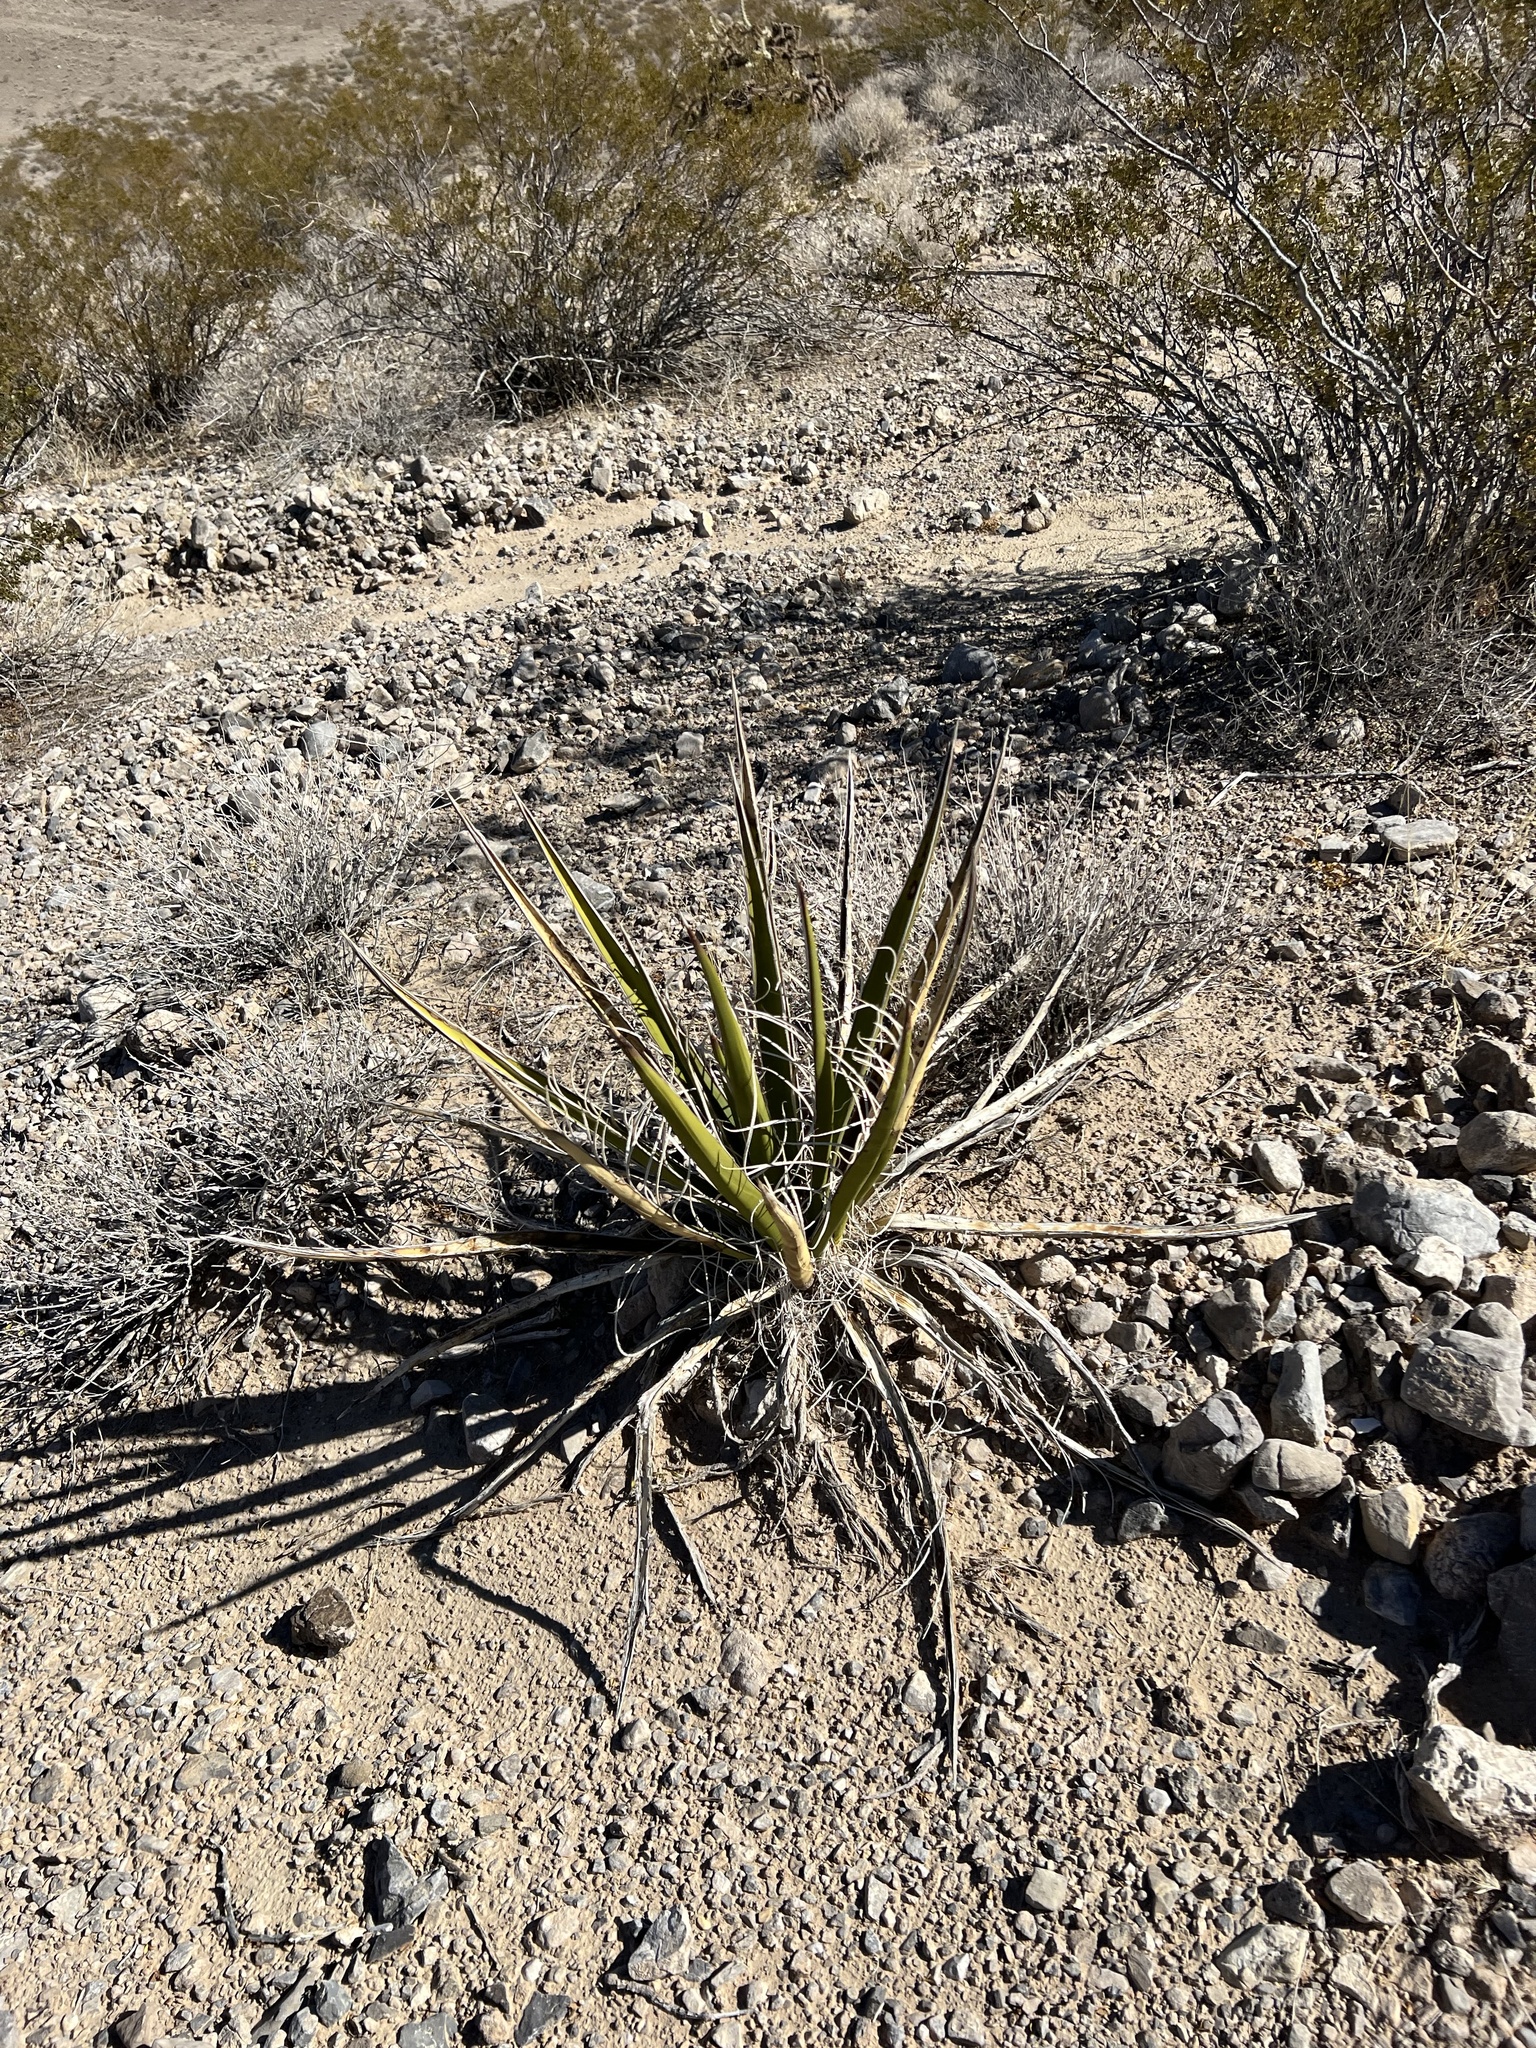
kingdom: Plantae
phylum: Tracheophyta
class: Liliopsida
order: Asparagales
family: Asparagaceae
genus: Yucca
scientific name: Yucca schidigera
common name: Mojave yucca
